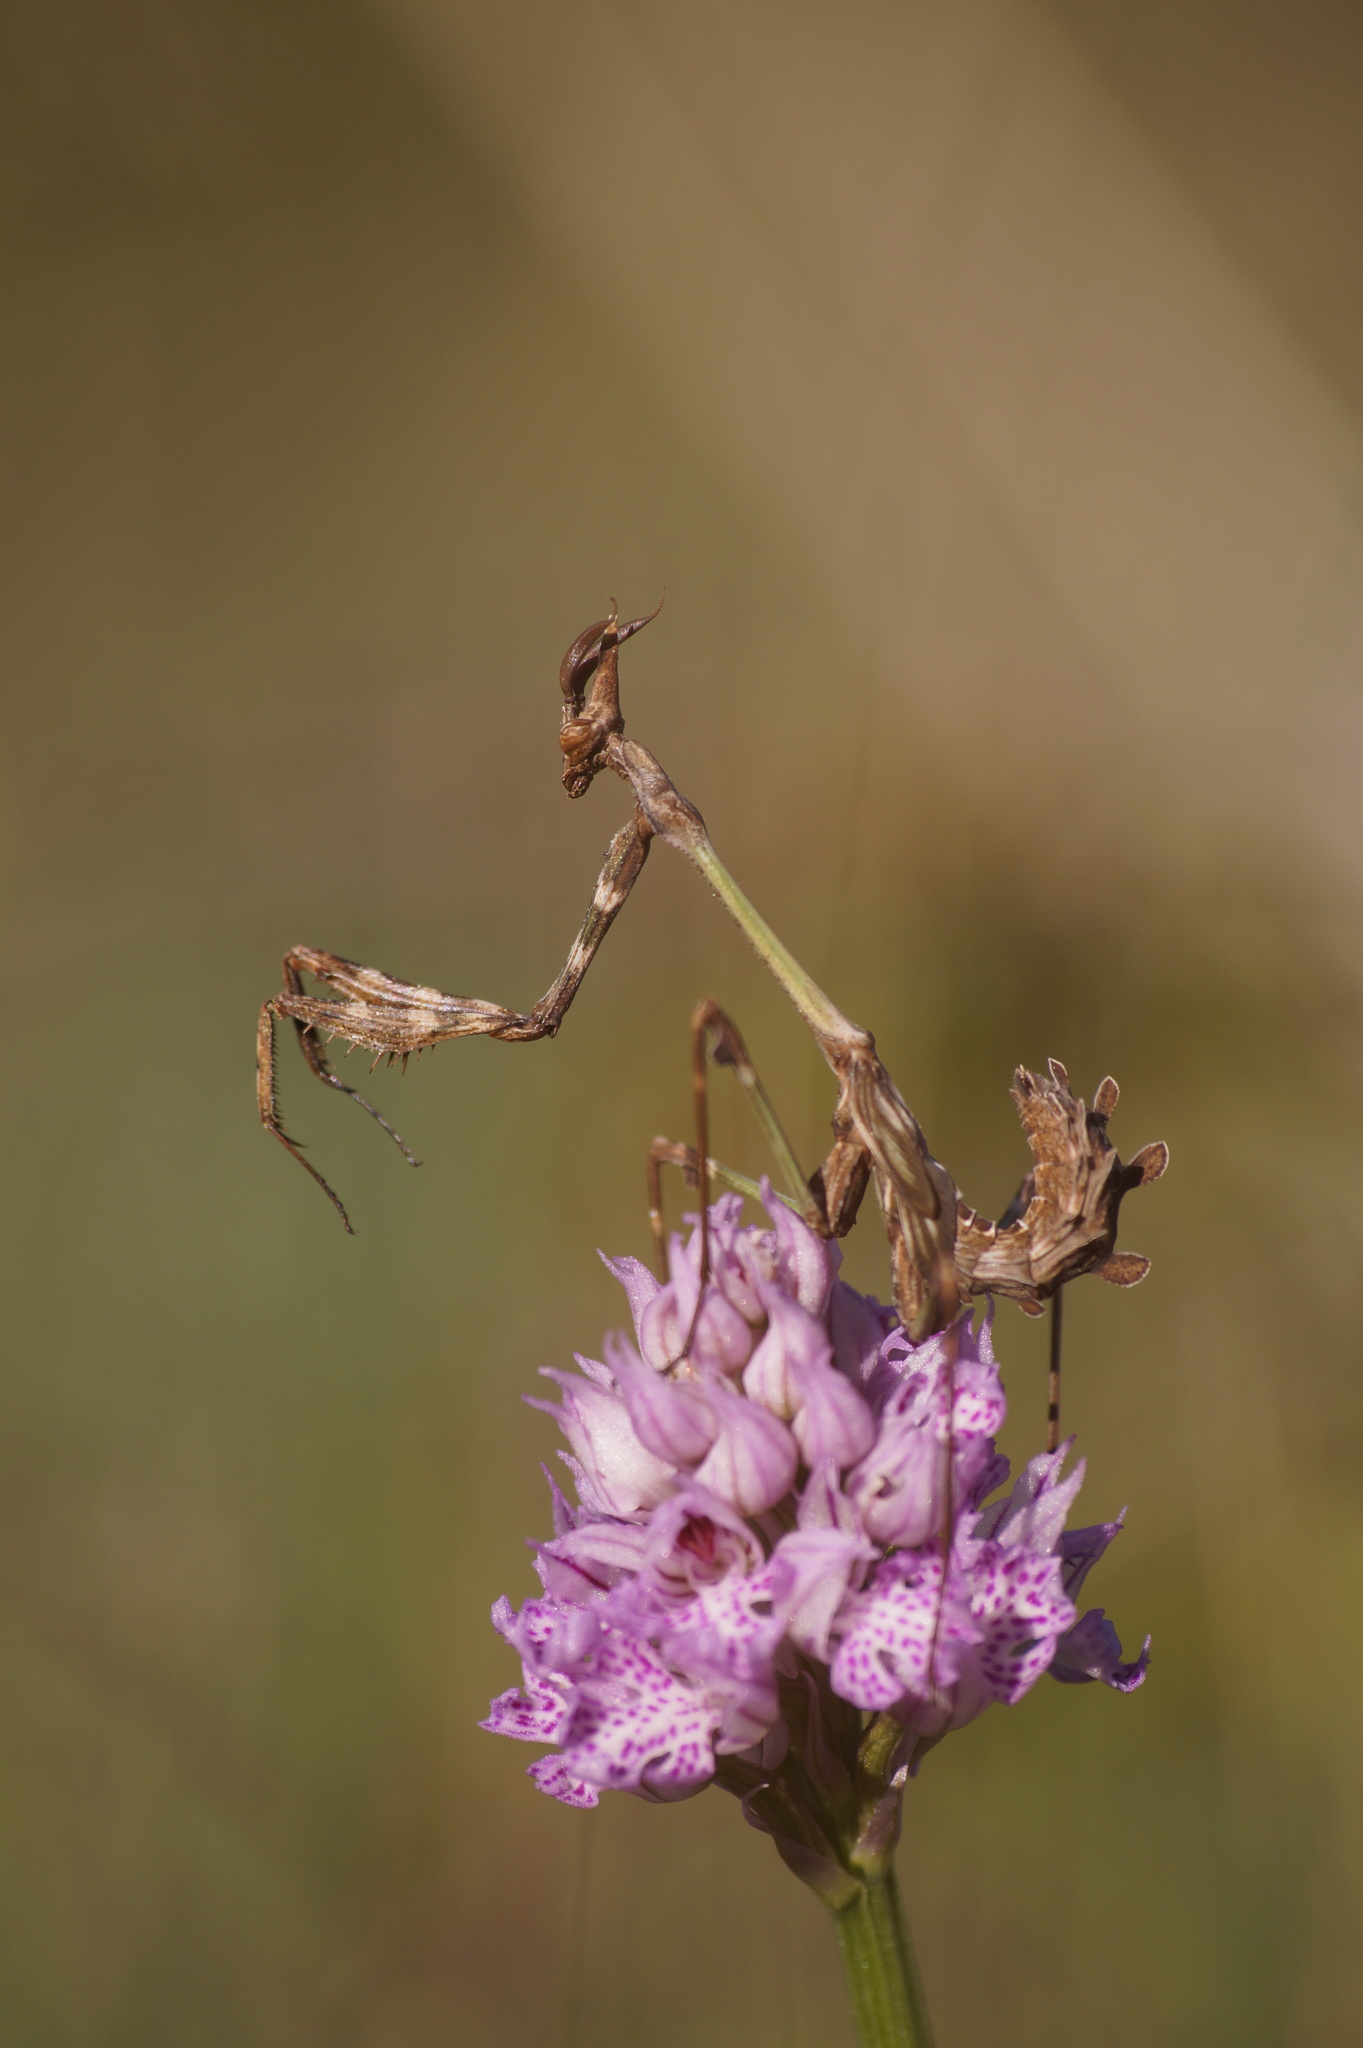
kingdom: Animalia
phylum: Arthropoda
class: Insecta
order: Mantodea
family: Empusidae
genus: Empusa
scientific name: Empusa fasciata
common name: Devil's mare
